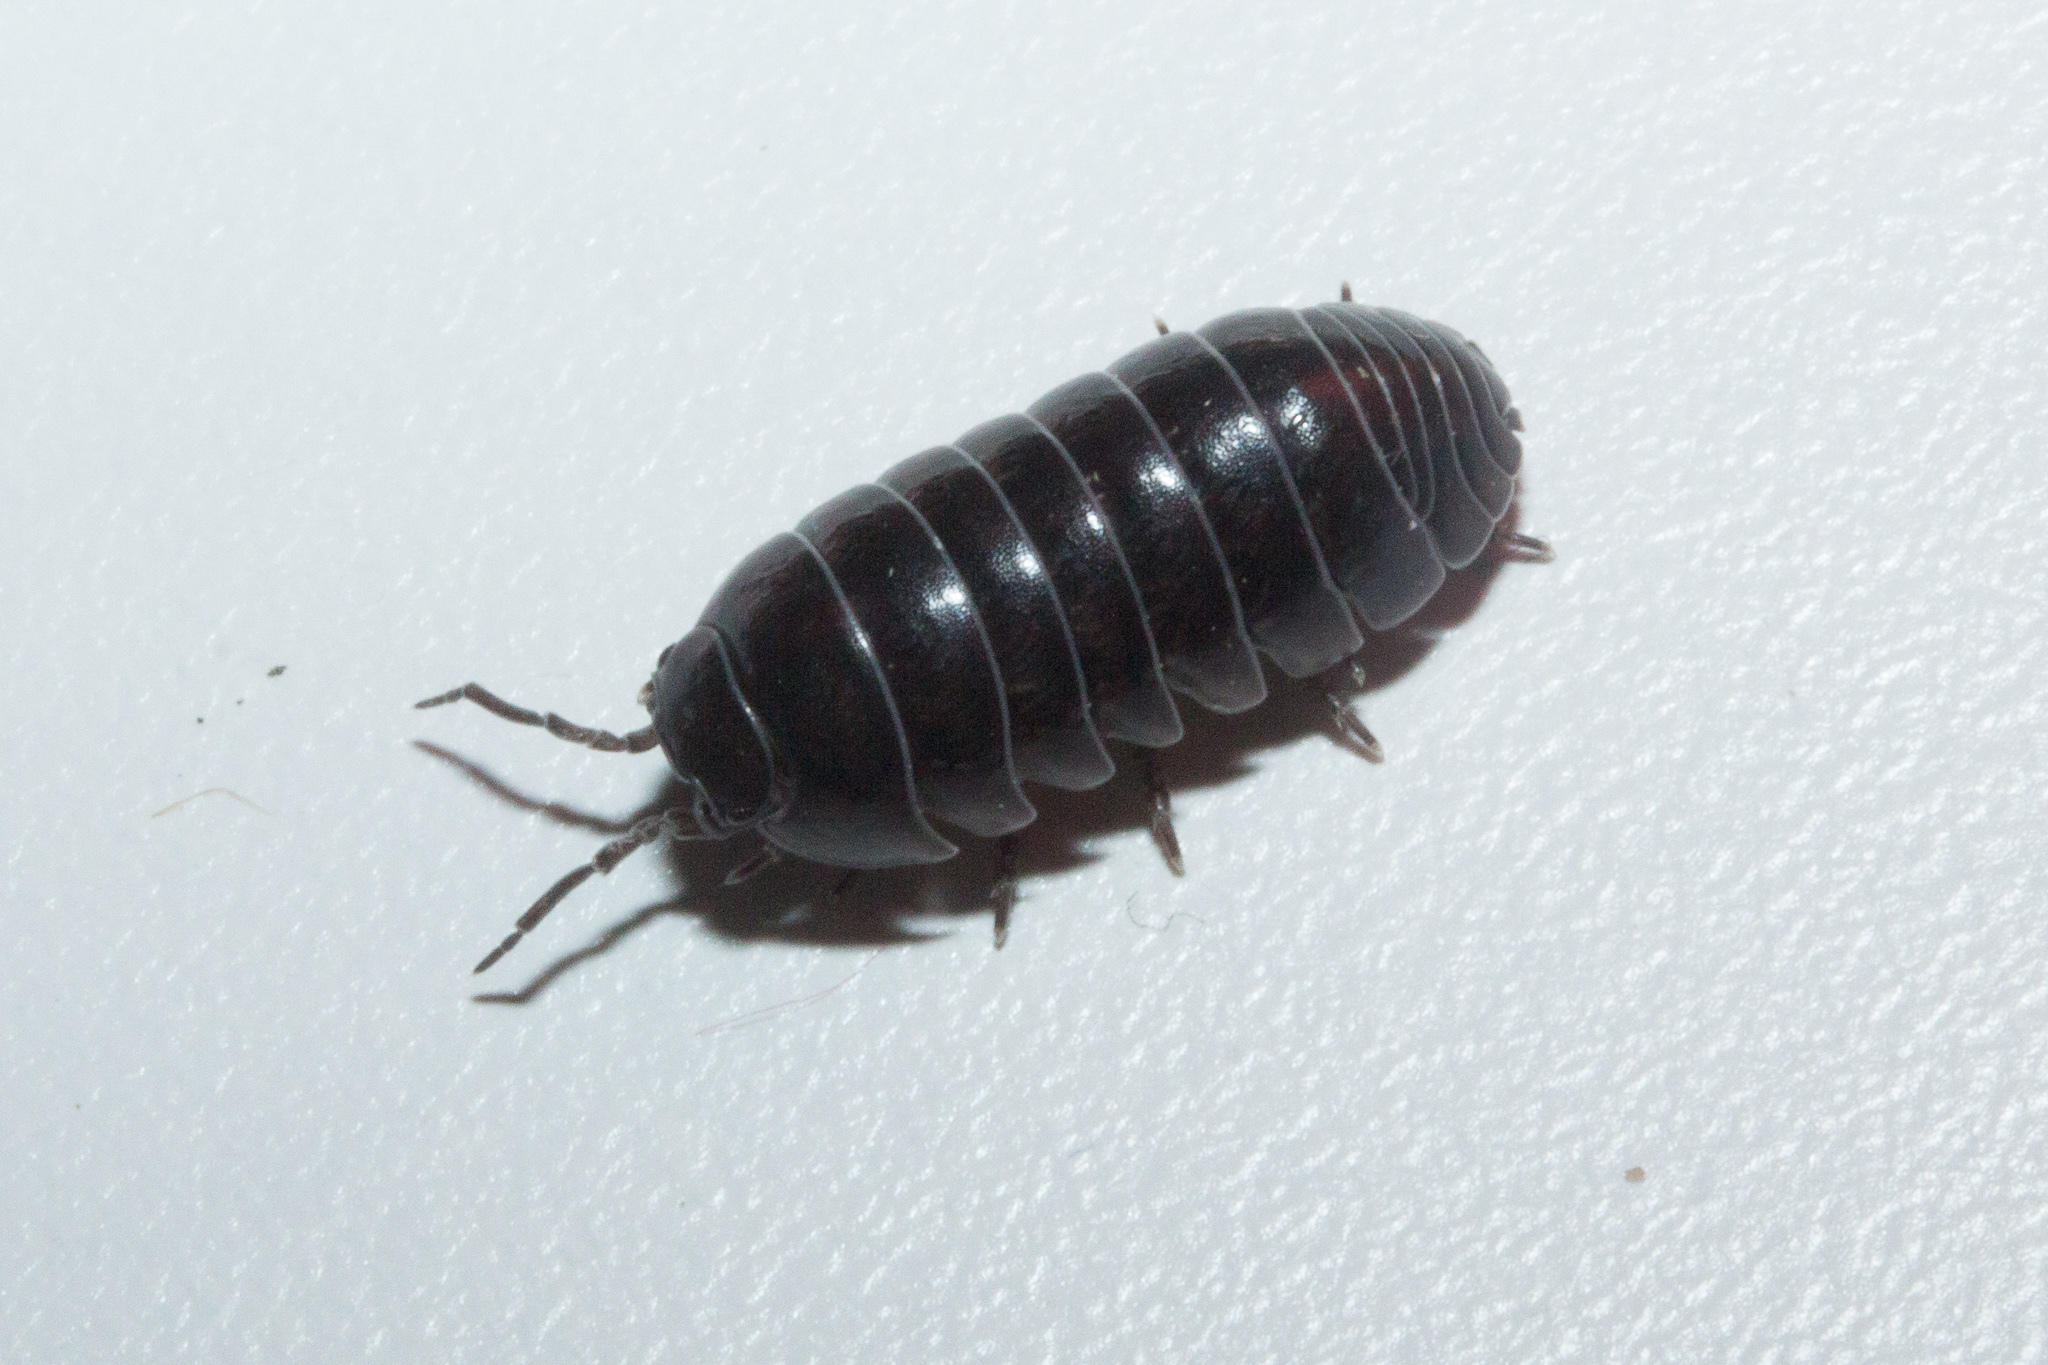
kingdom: Animalia
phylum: Arthropoda
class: Malacostraca
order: Isopoda
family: Armadillidiidae
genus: Armadillidium
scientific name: Armadillidium vulgare
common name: Common pill woodlouse
